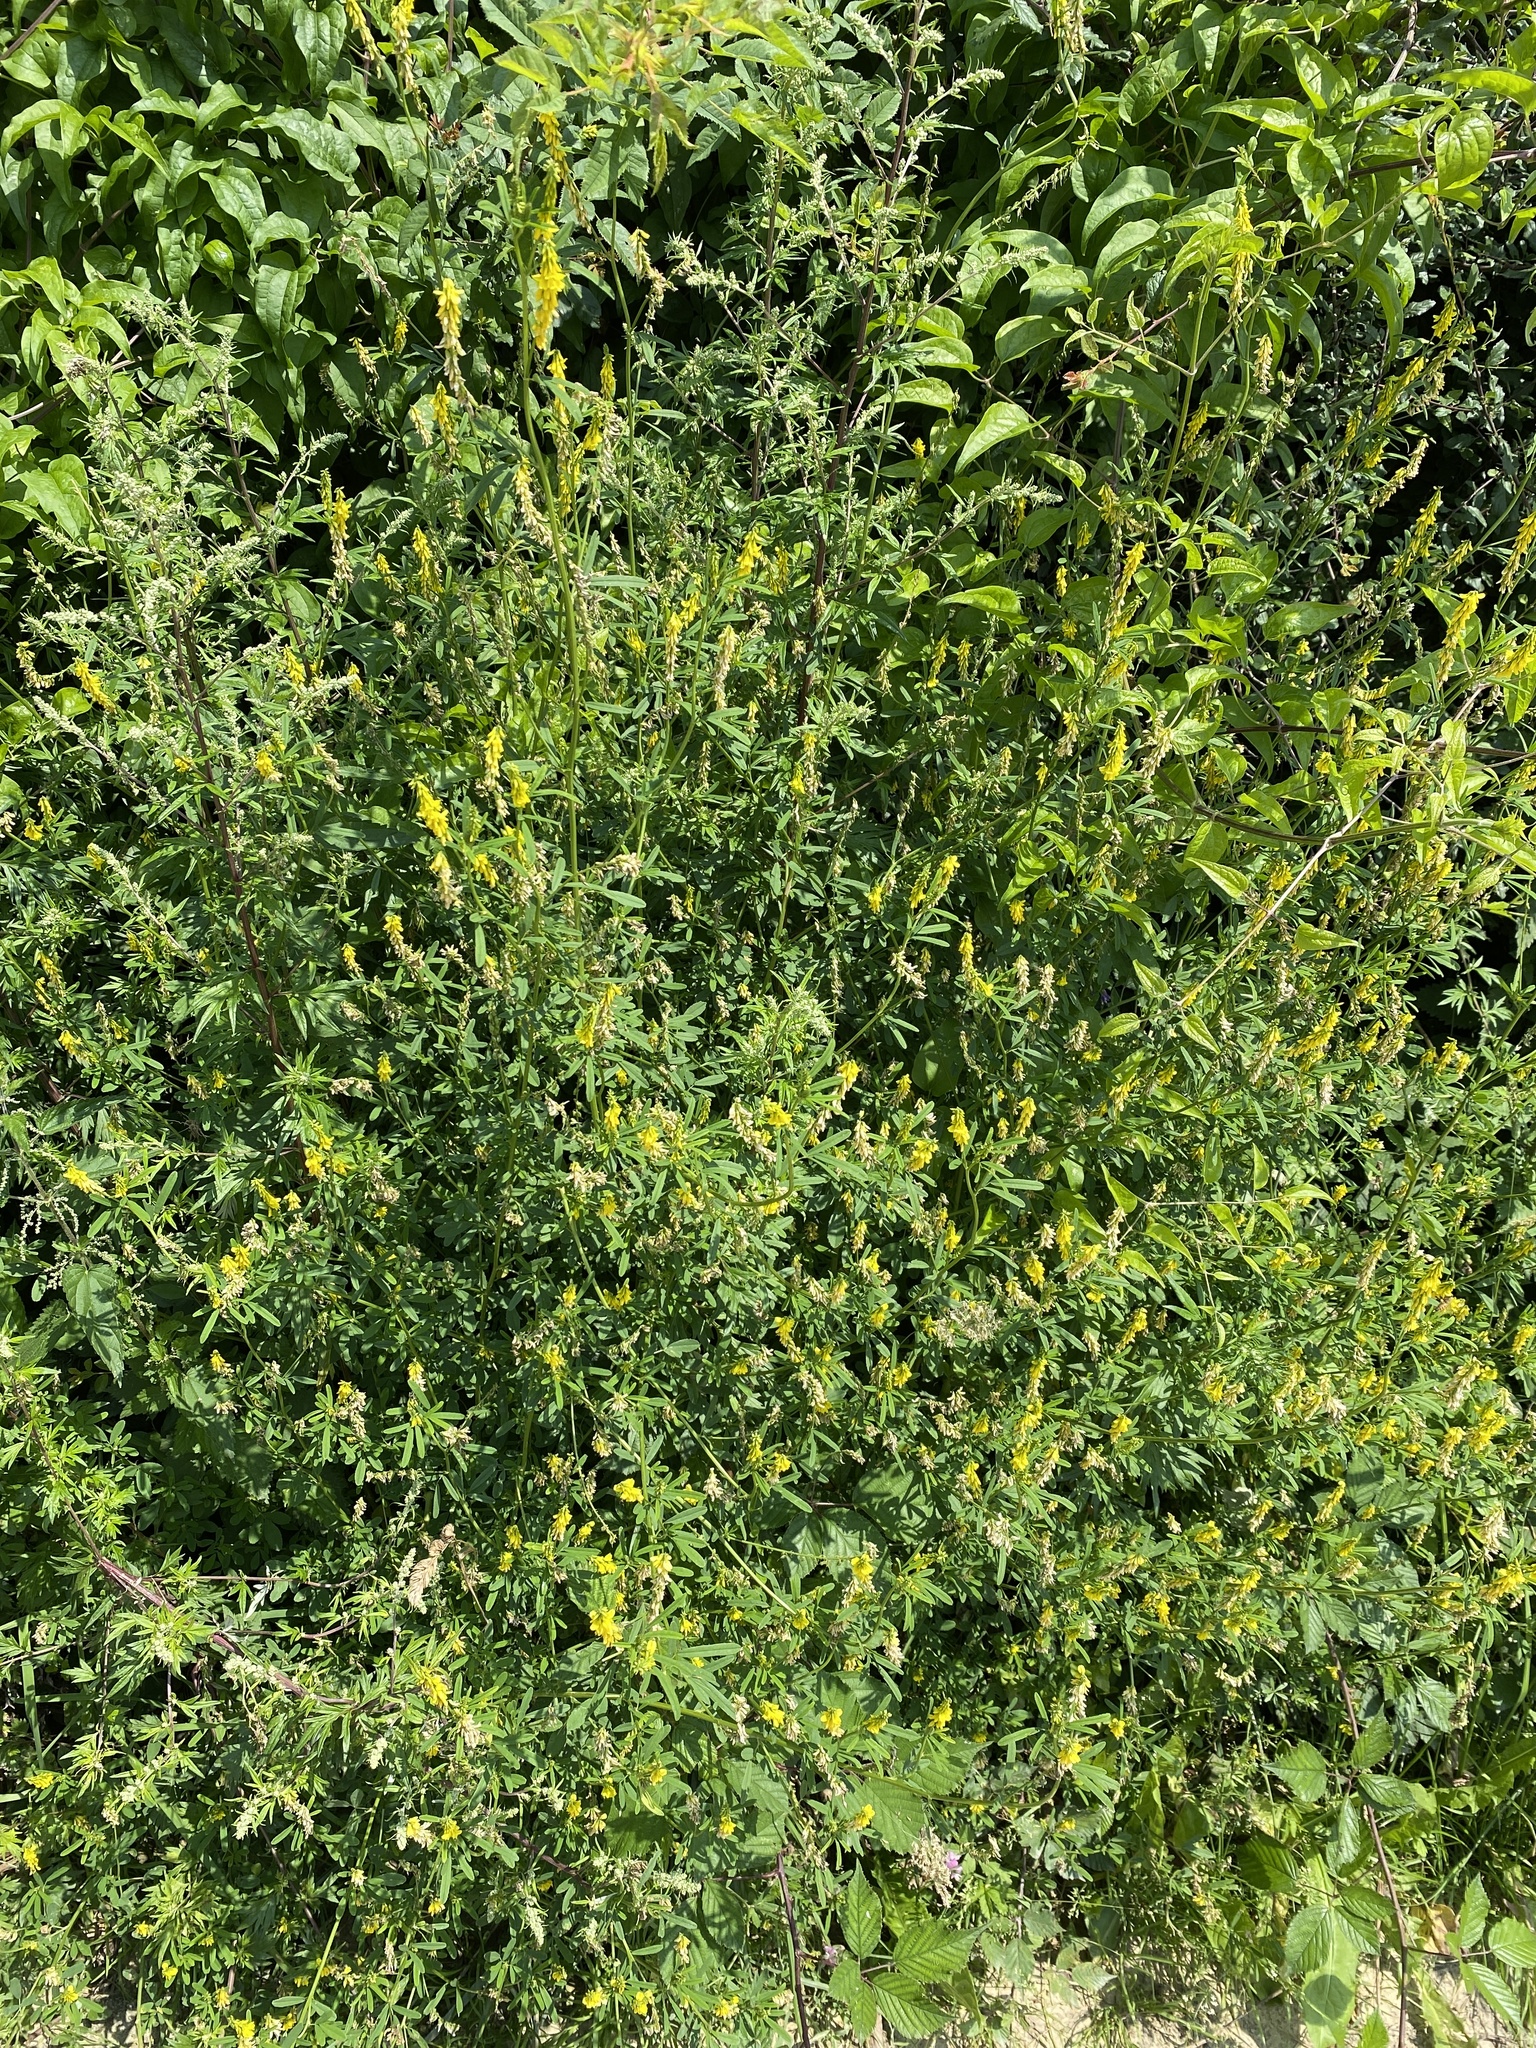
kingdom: Plantae
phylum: Tracheophyta
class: Magnoliopsida
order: Fabales
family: Fabaceae
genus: Melilotus
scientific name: Melilotus officinalis
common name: Sweetclover
